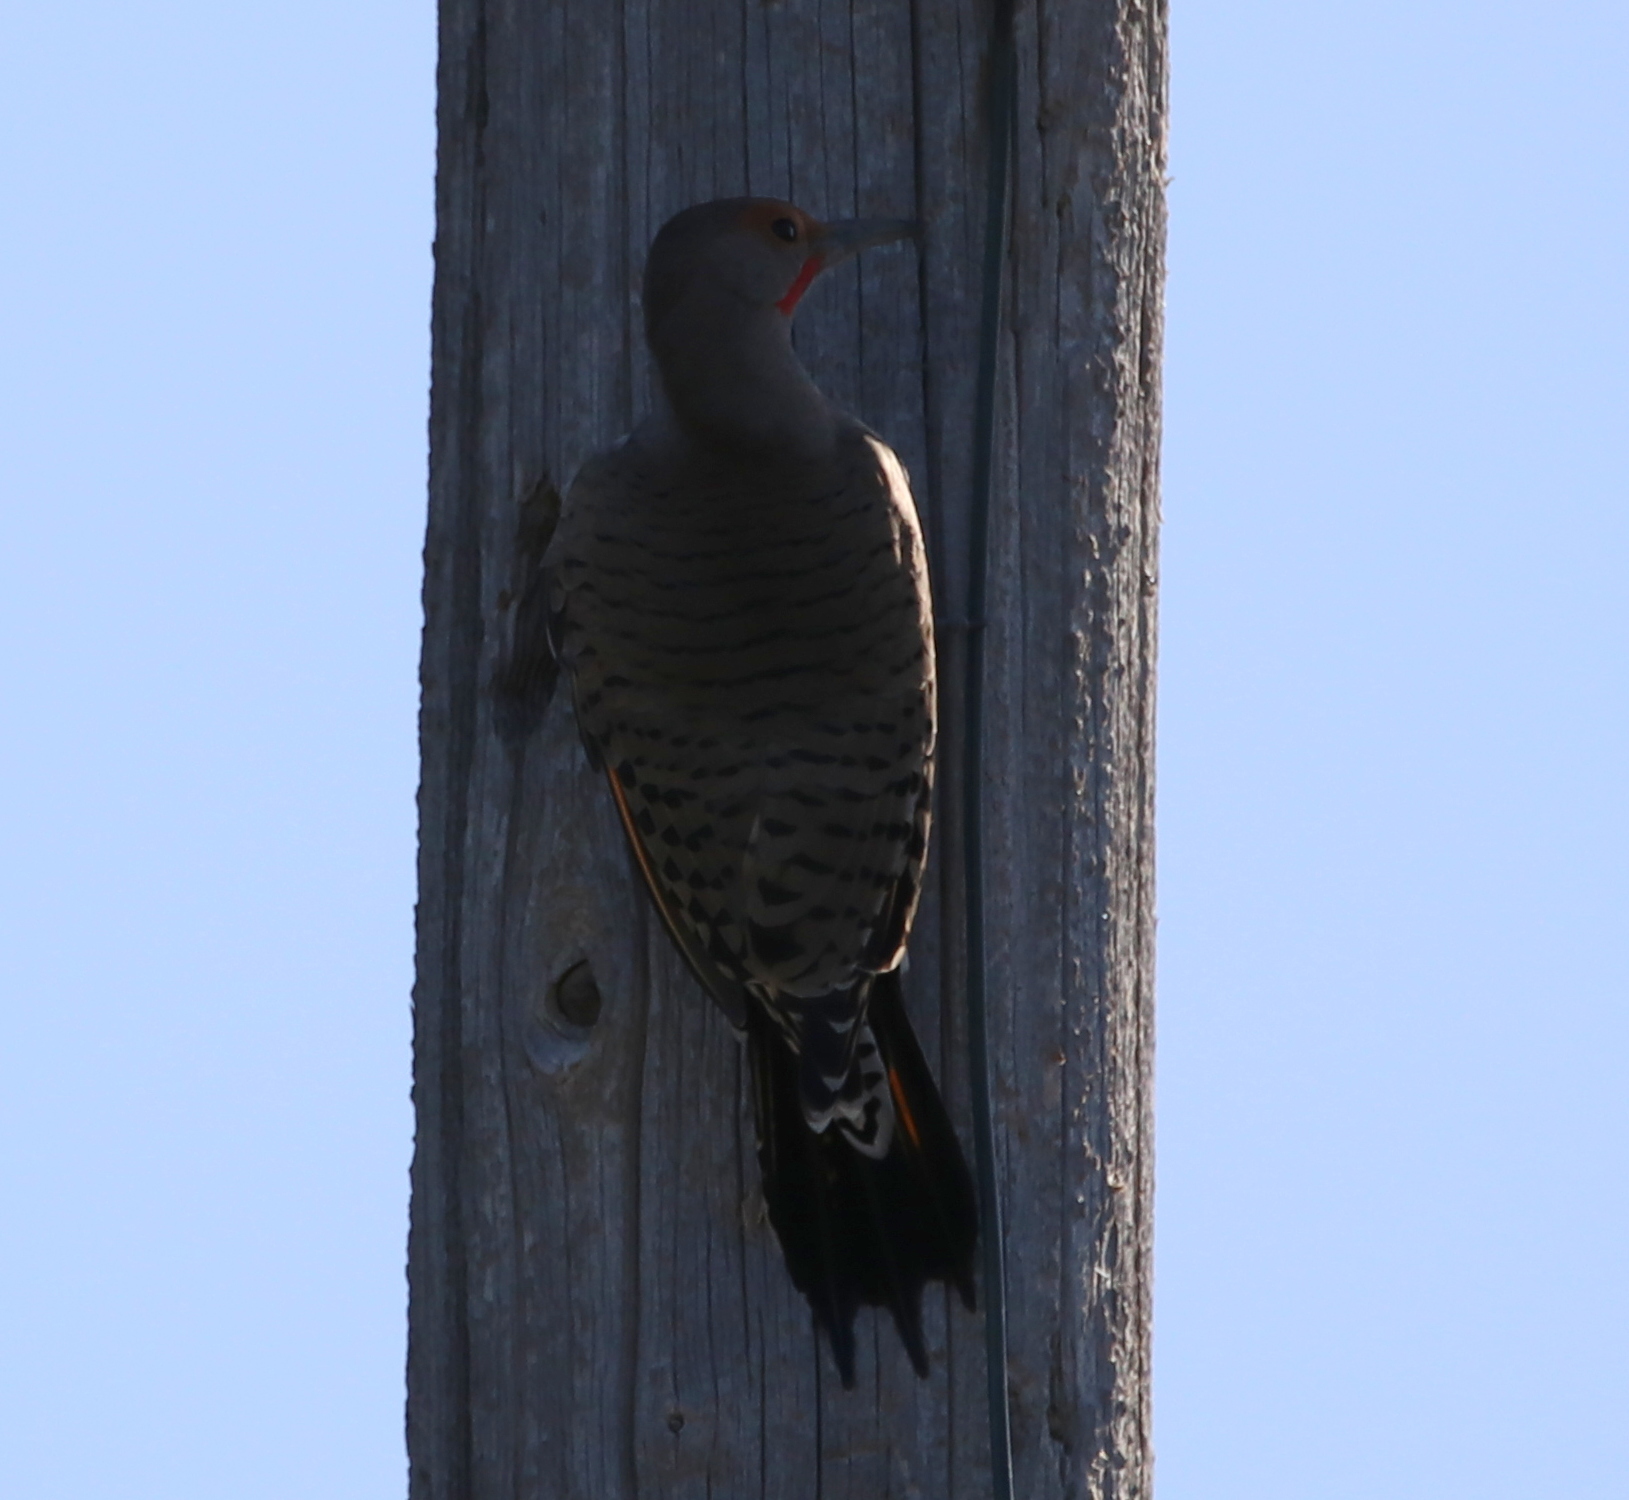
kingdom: Animalia
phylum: Chordata
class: Aves
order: Piciformes
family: Picidae
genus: Colaptes
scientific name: Colaptes auratus
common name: Northern flicker
